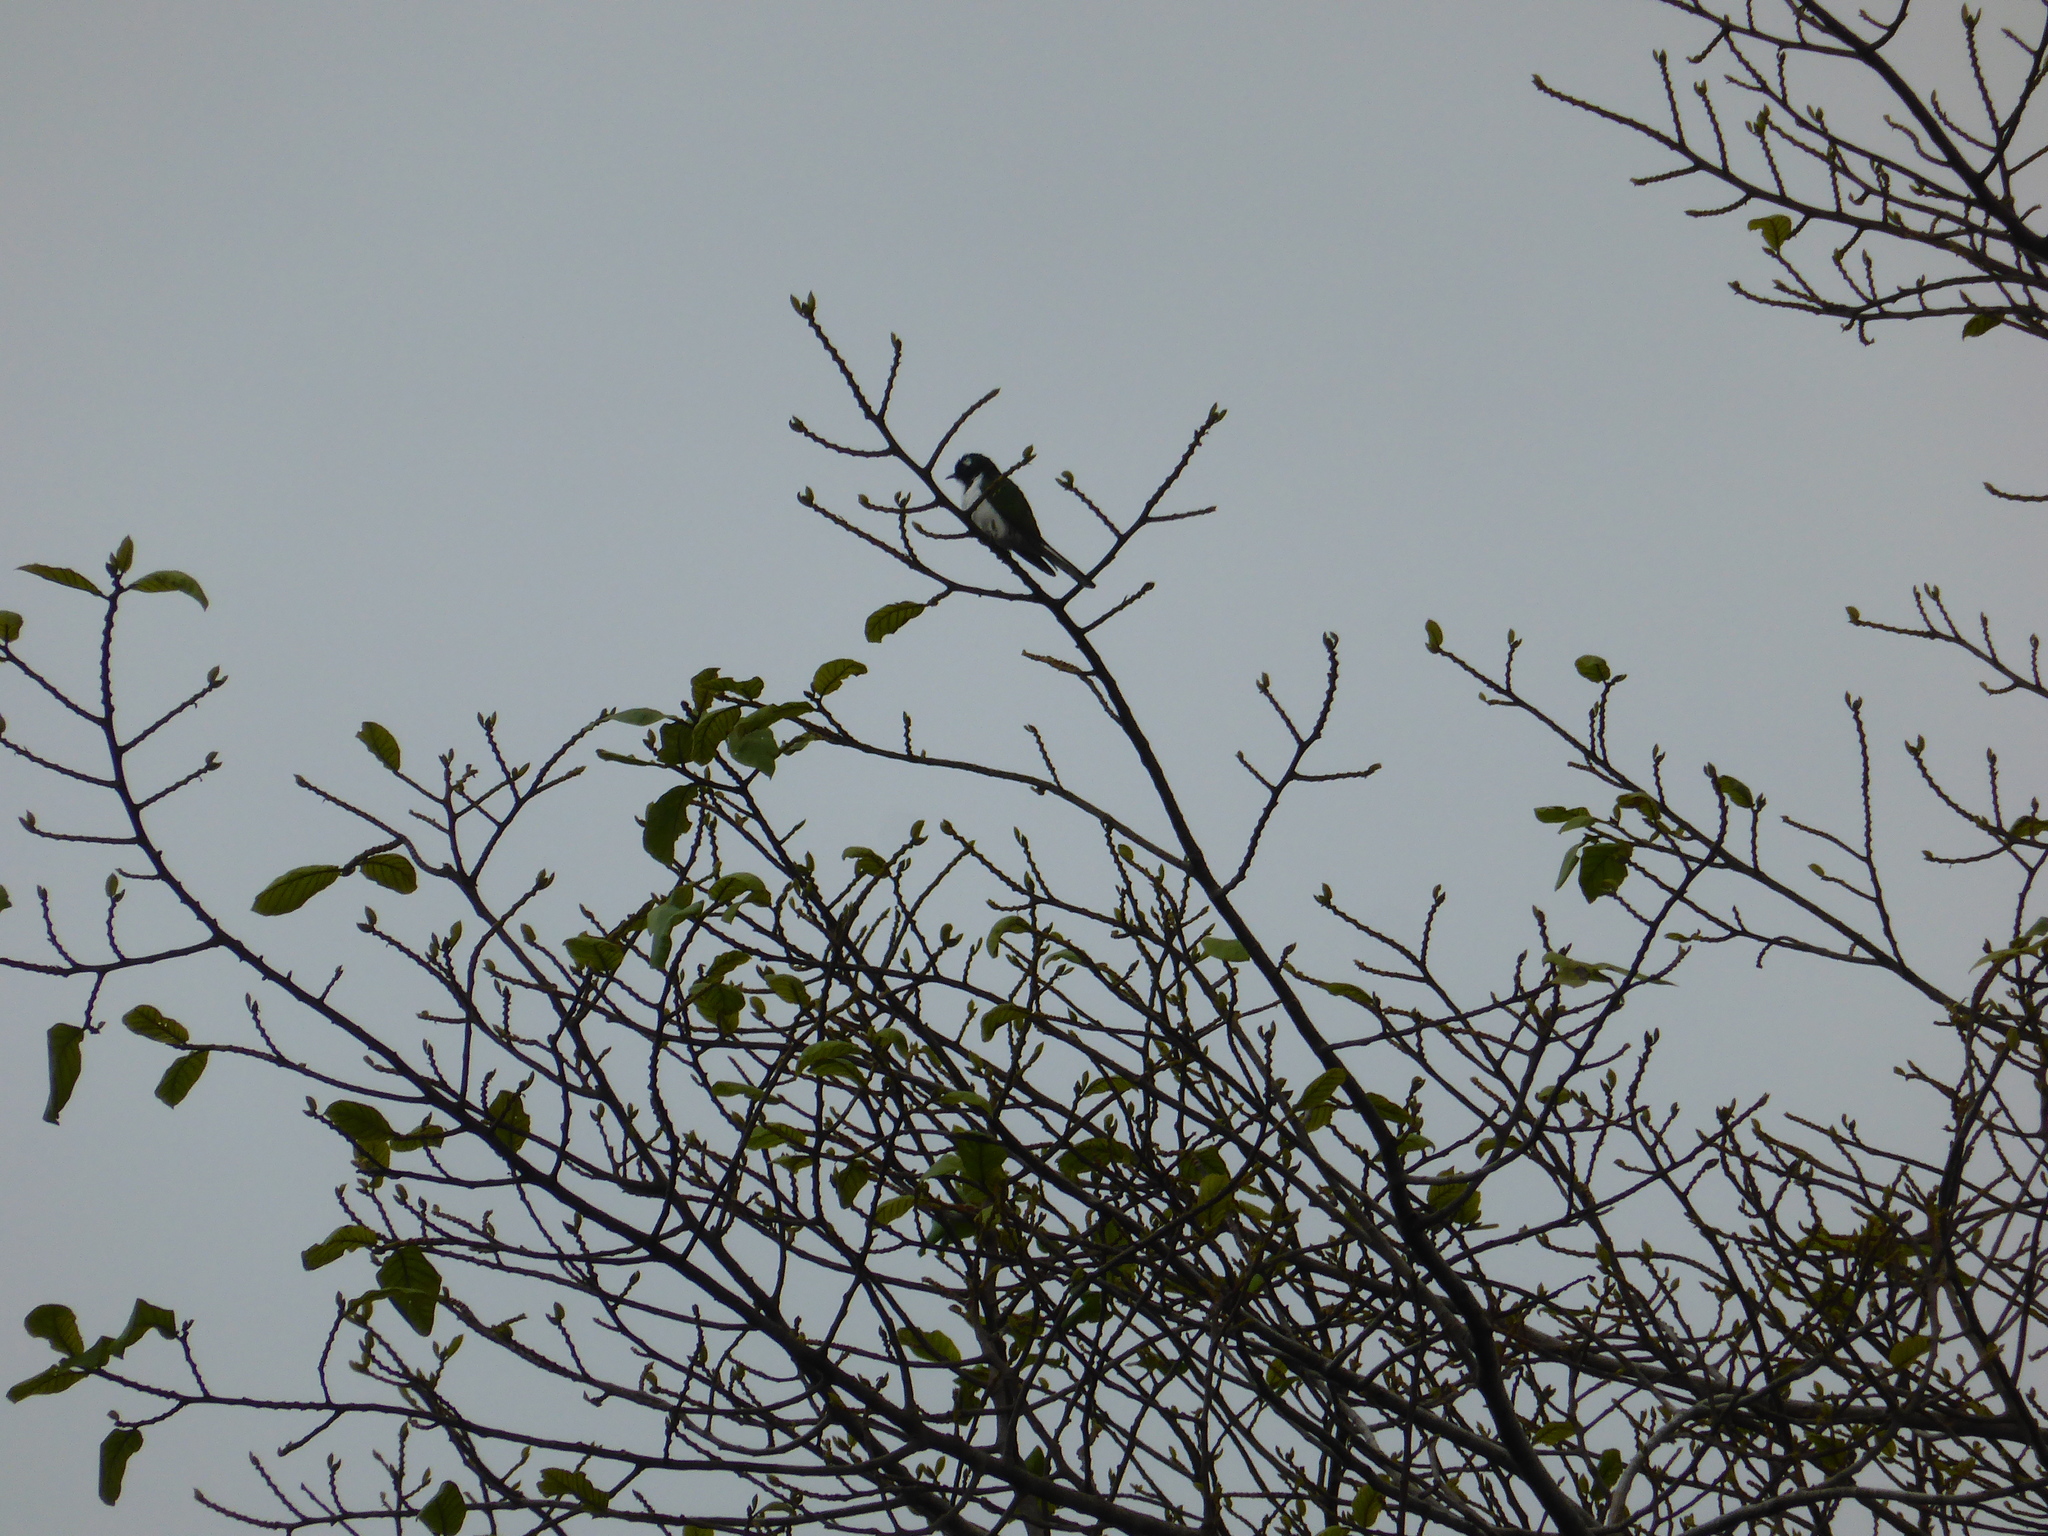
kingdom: Animalia
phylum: Chordata
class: Aves
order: Passeriformes
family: Nectariniidae
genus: Anthreptes
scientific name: Anthreptes longuemarei
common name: Western violet-backed sunbird
